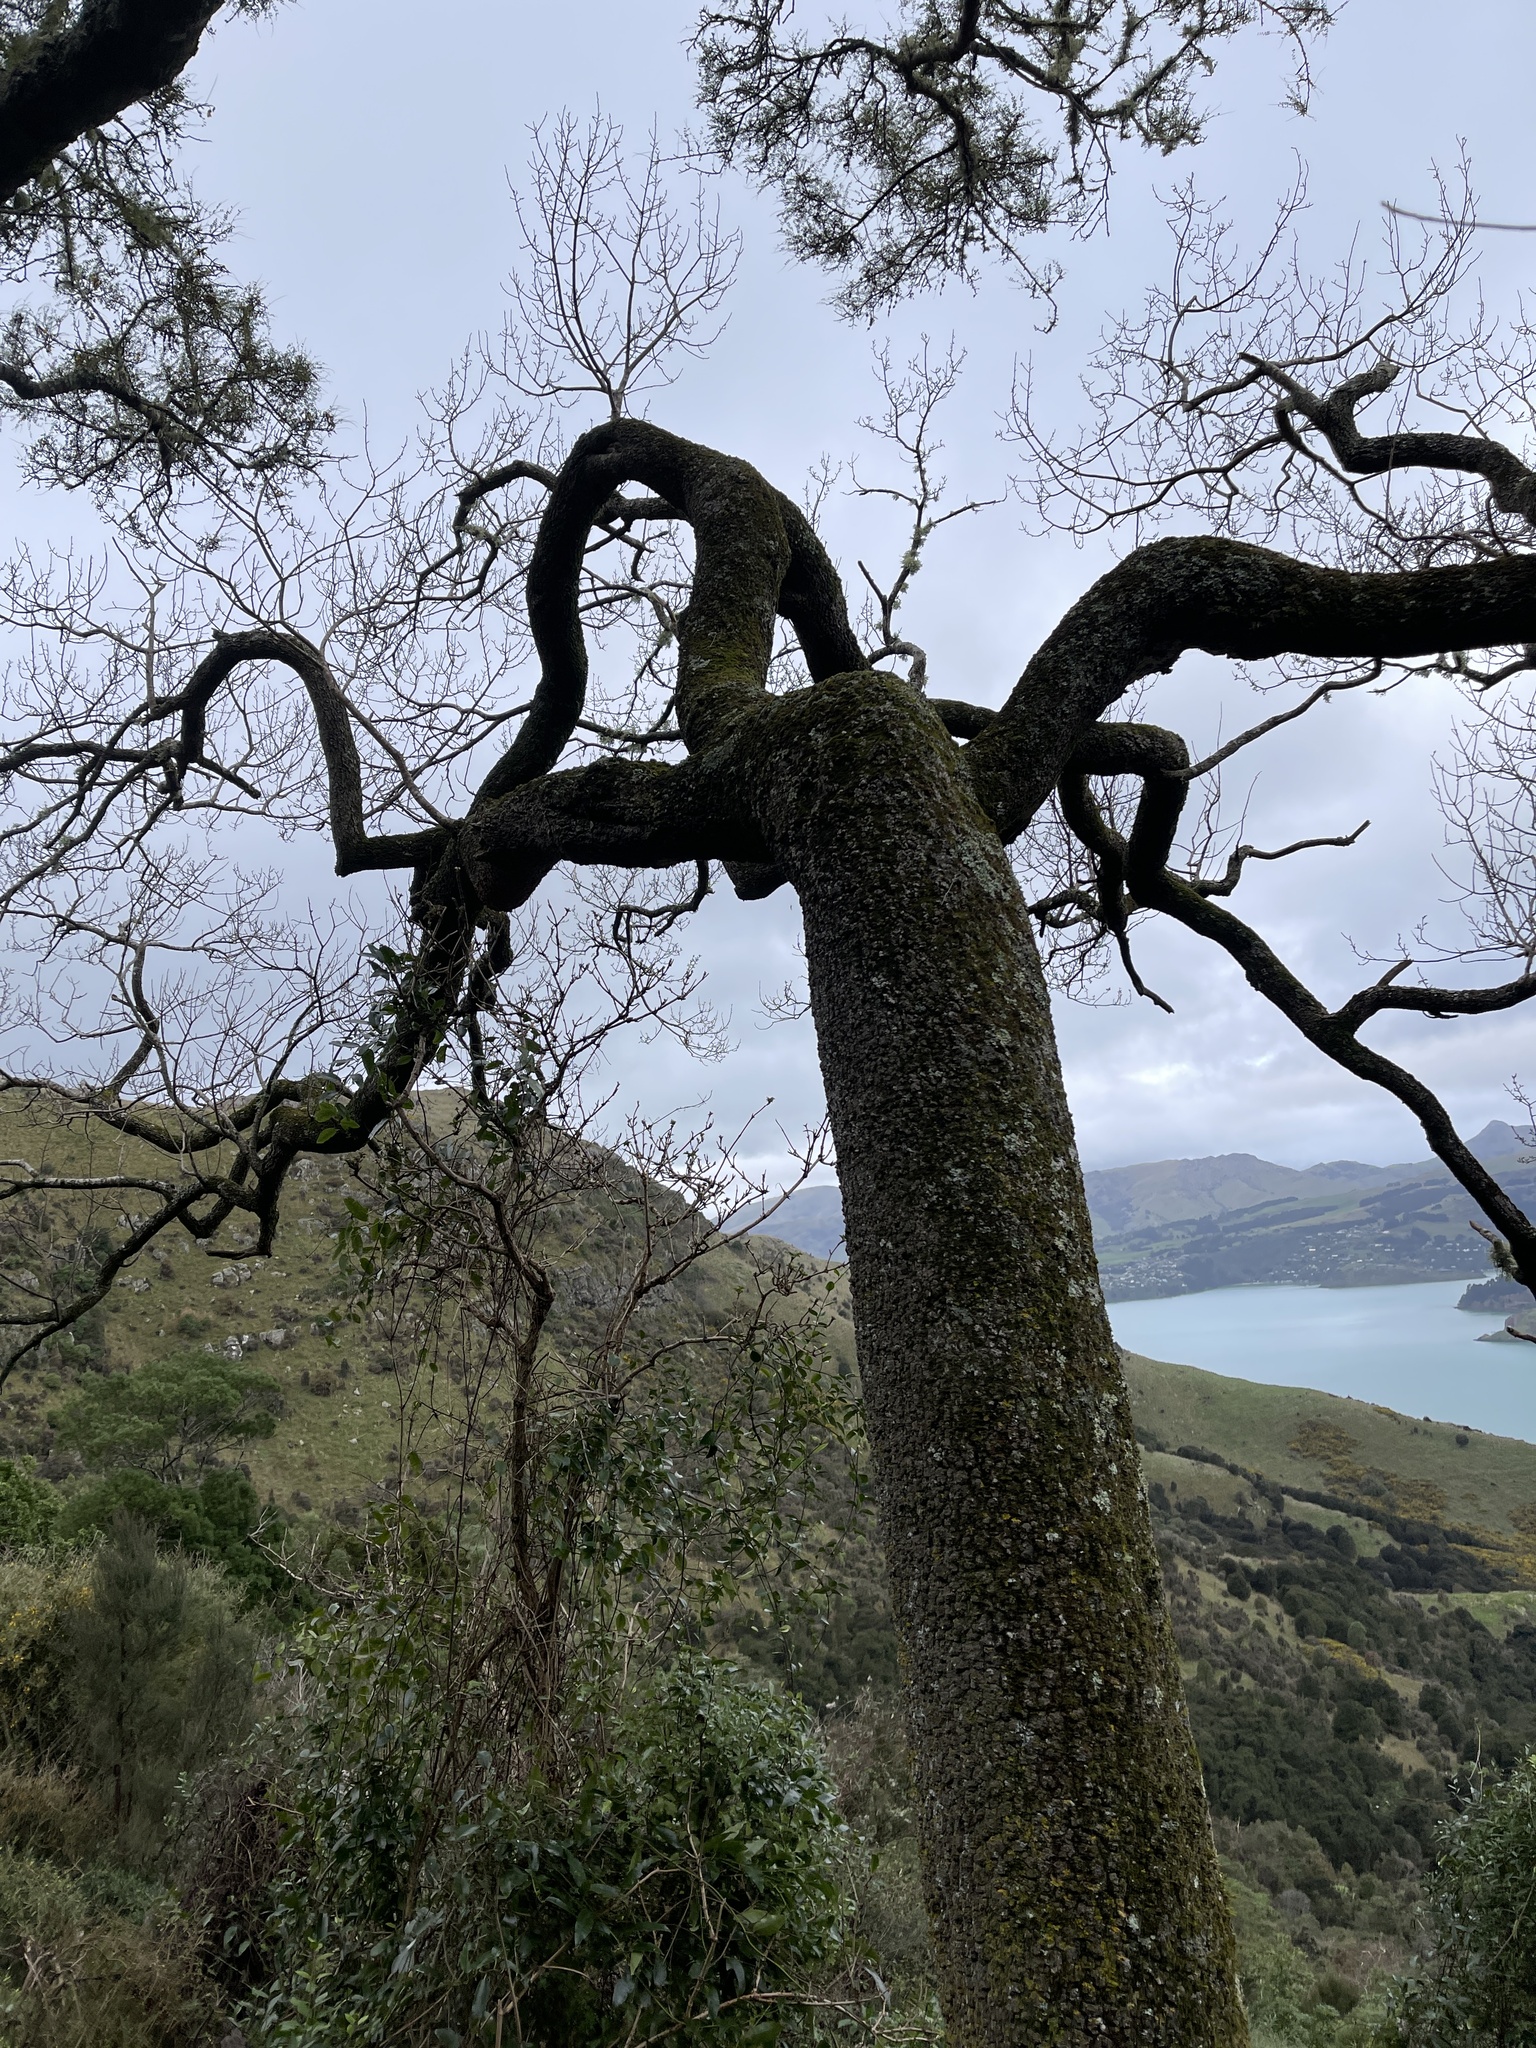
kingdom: Plantae
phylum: Tracheophyta
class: Magnoliopsida
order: Malvales
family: Malvaceae
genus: Plagianthus
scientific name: Plagianthus regius
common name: Manatu
